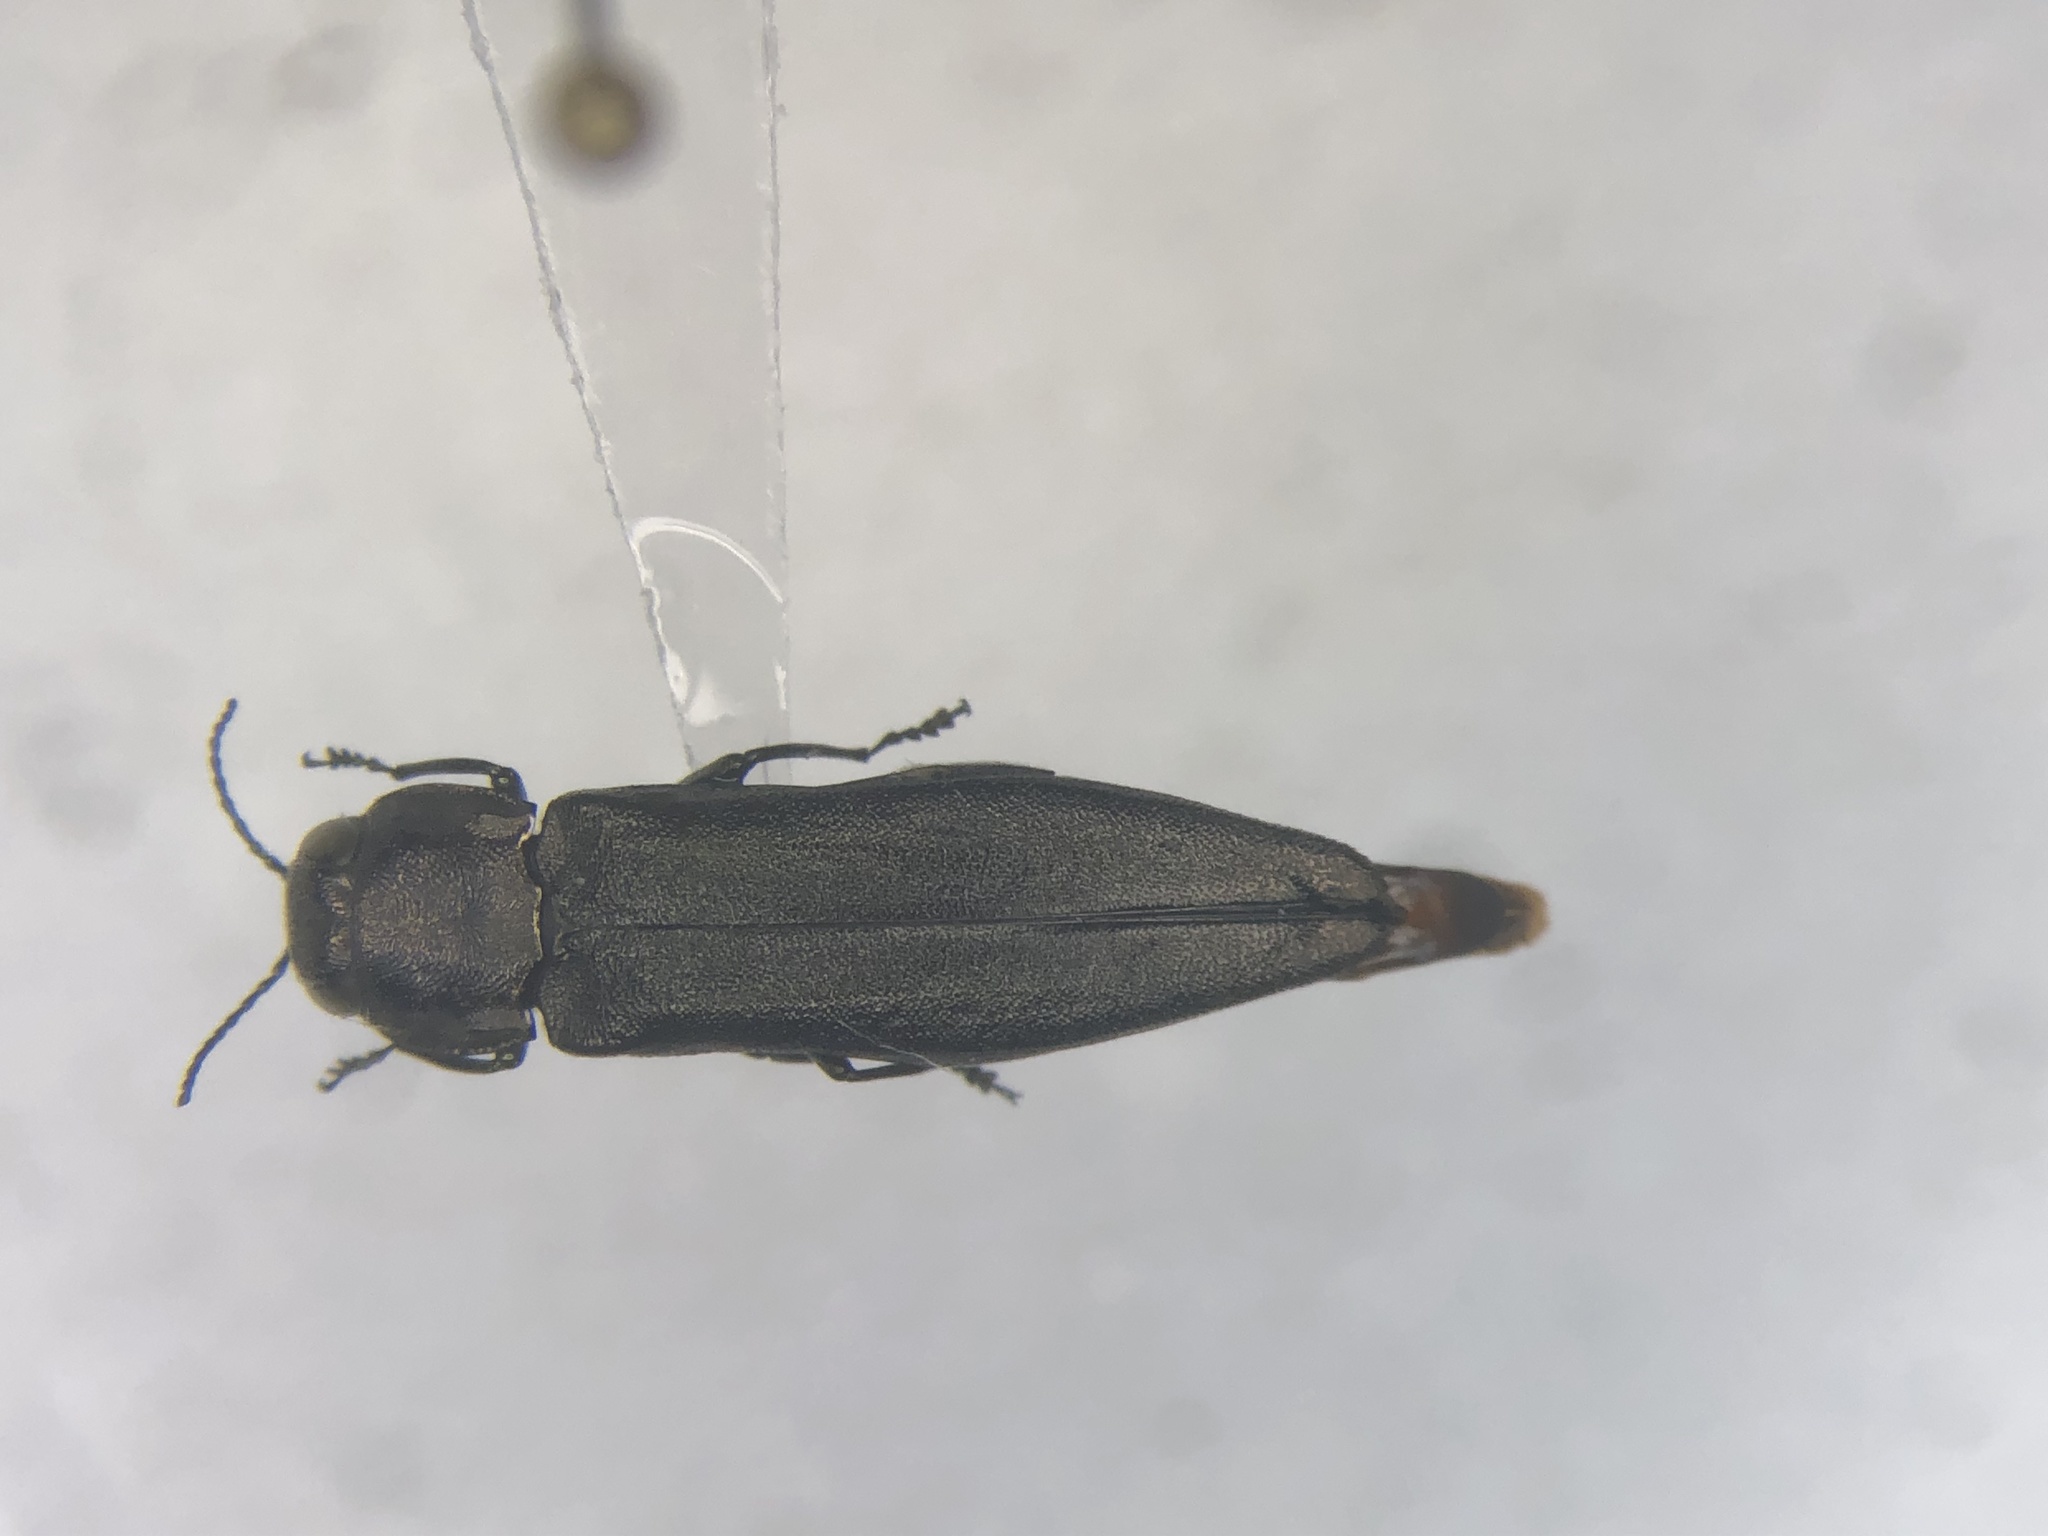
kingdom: Animalia
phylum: Arthropoda
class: Insecta
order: Coleoptera
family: Buprestidae
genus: Agrilus
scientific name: Agrilus anxius
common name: Bronze birch borer
